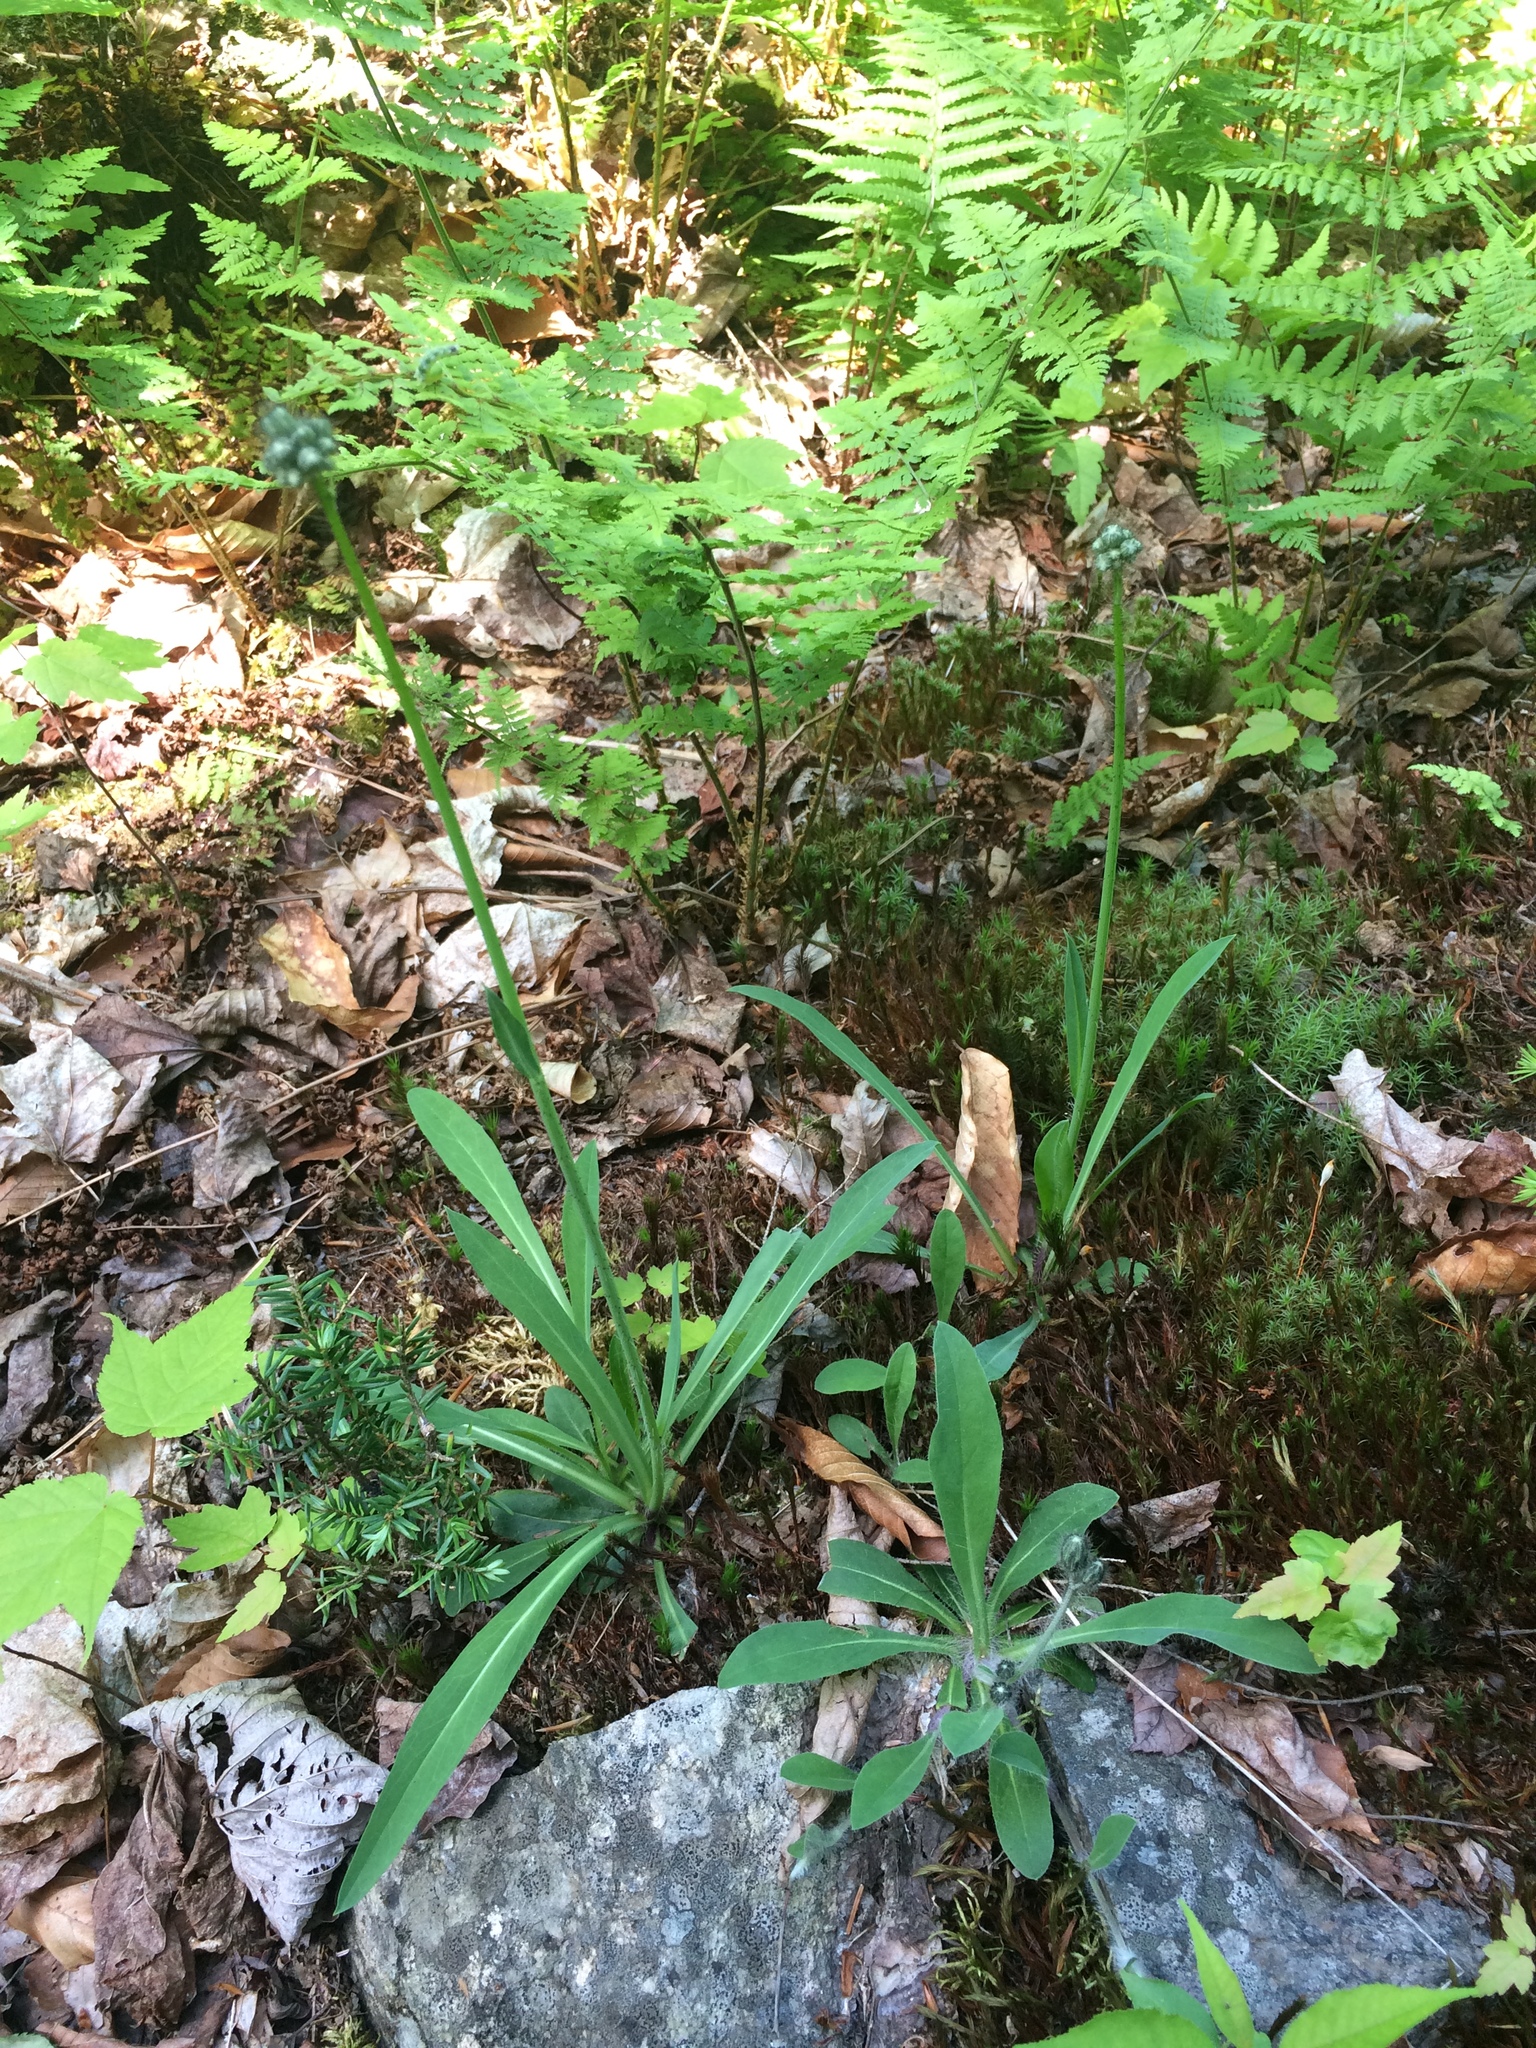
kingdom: Plantae
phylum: Tracheophyta
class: Magnoliopsida
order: Asterales
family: Asteraceae
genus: Pilosella
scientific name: Pilosella flagellaris
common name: Flagellate hawkweed
